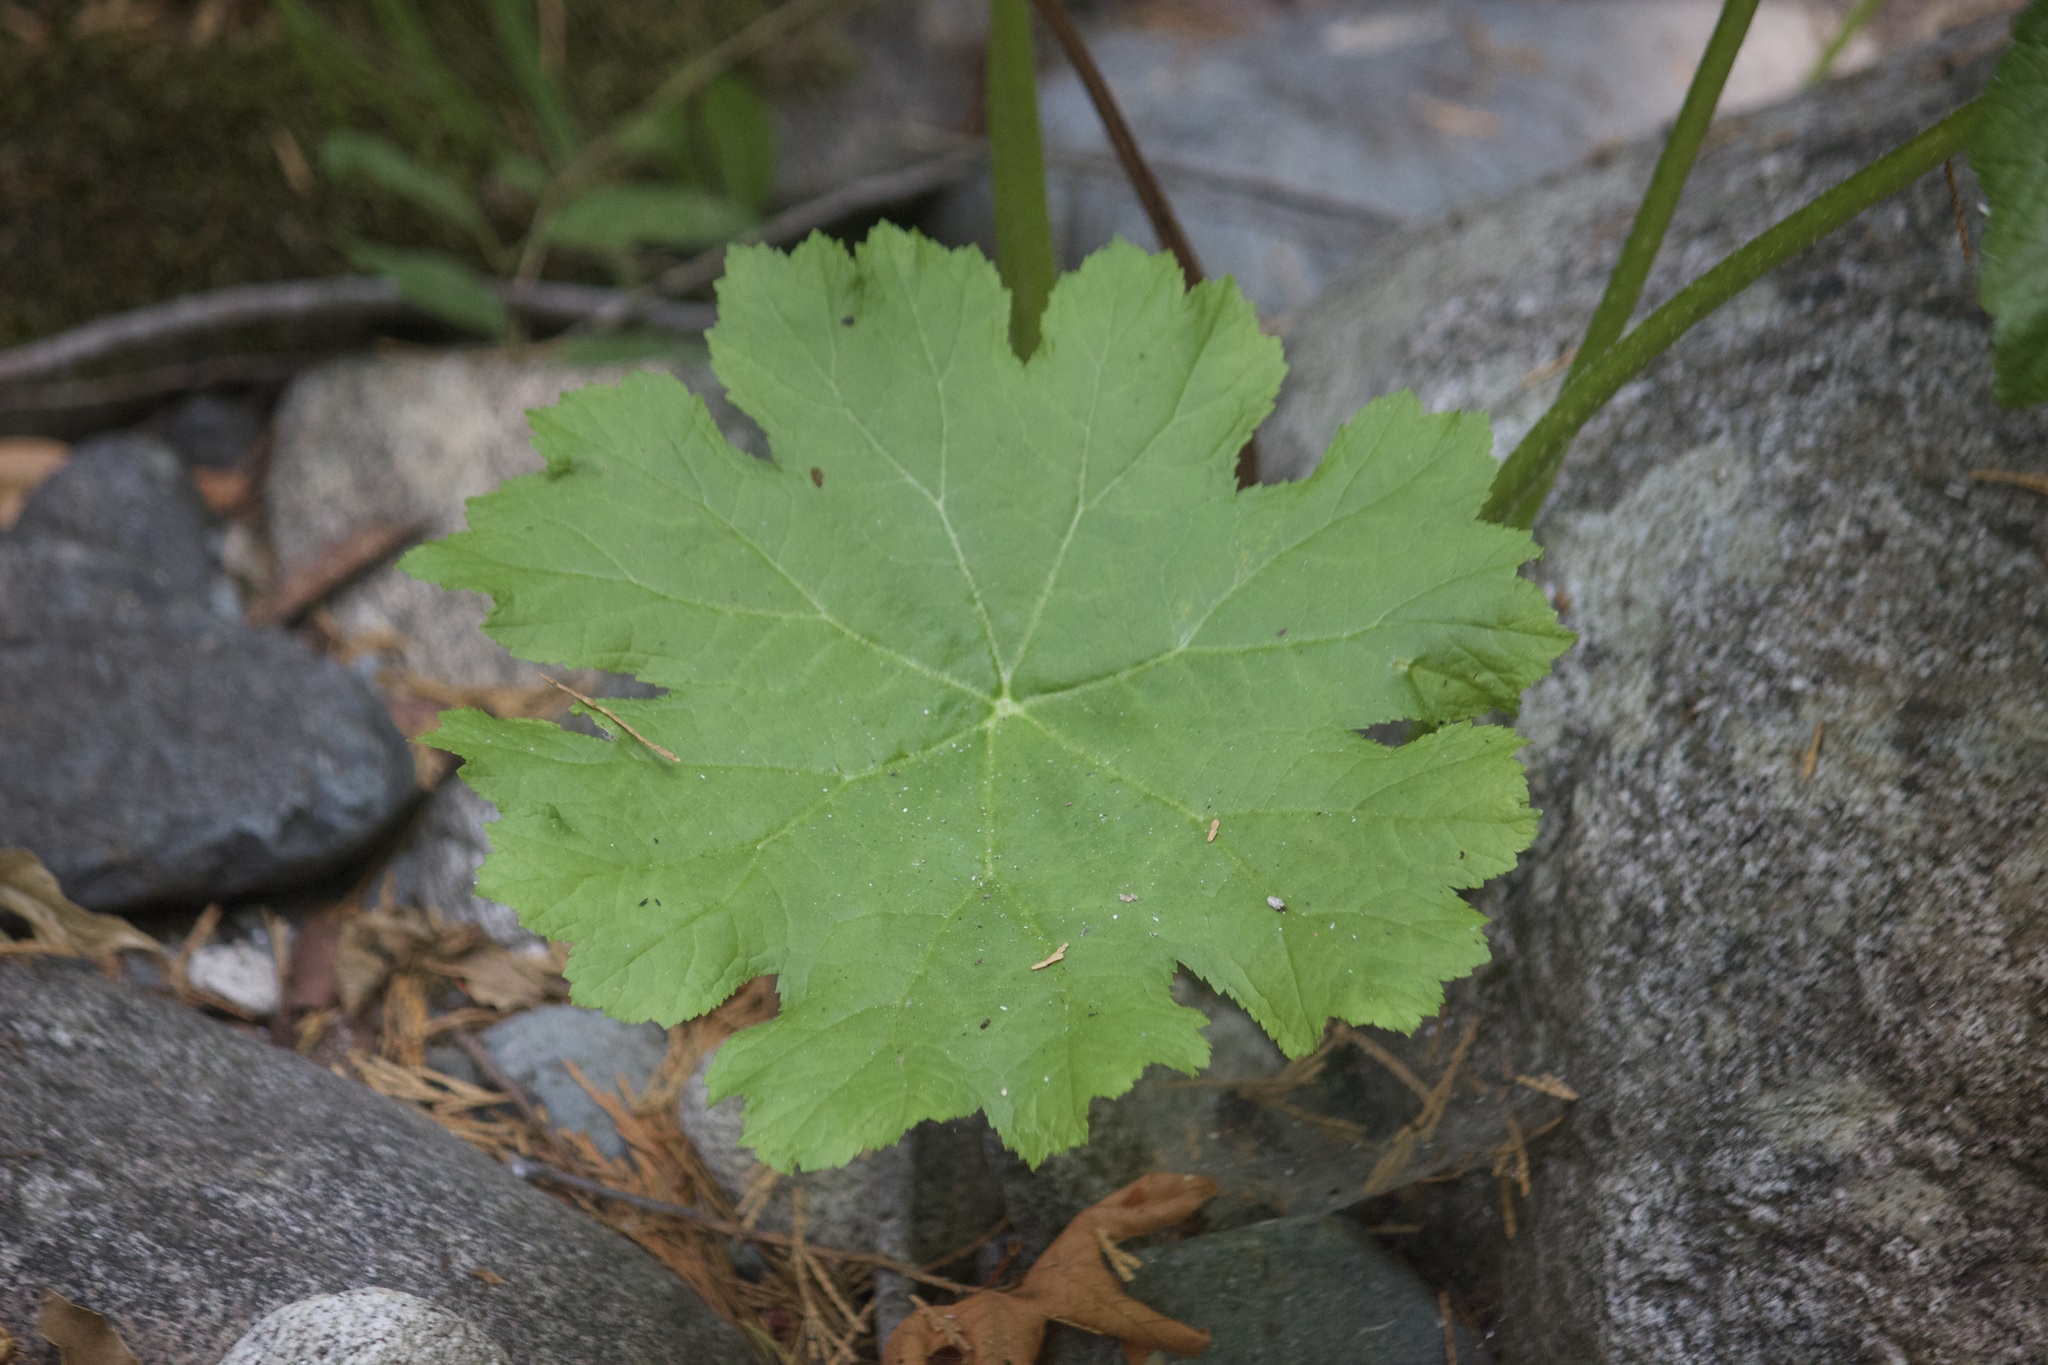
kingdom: Plantae
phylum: Tracheophyta
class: Magnoliopsida
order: Saxifragales
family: Saxifragaceae
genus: Darmera
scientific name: Darmera peltata
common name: Indian-rhubarb
